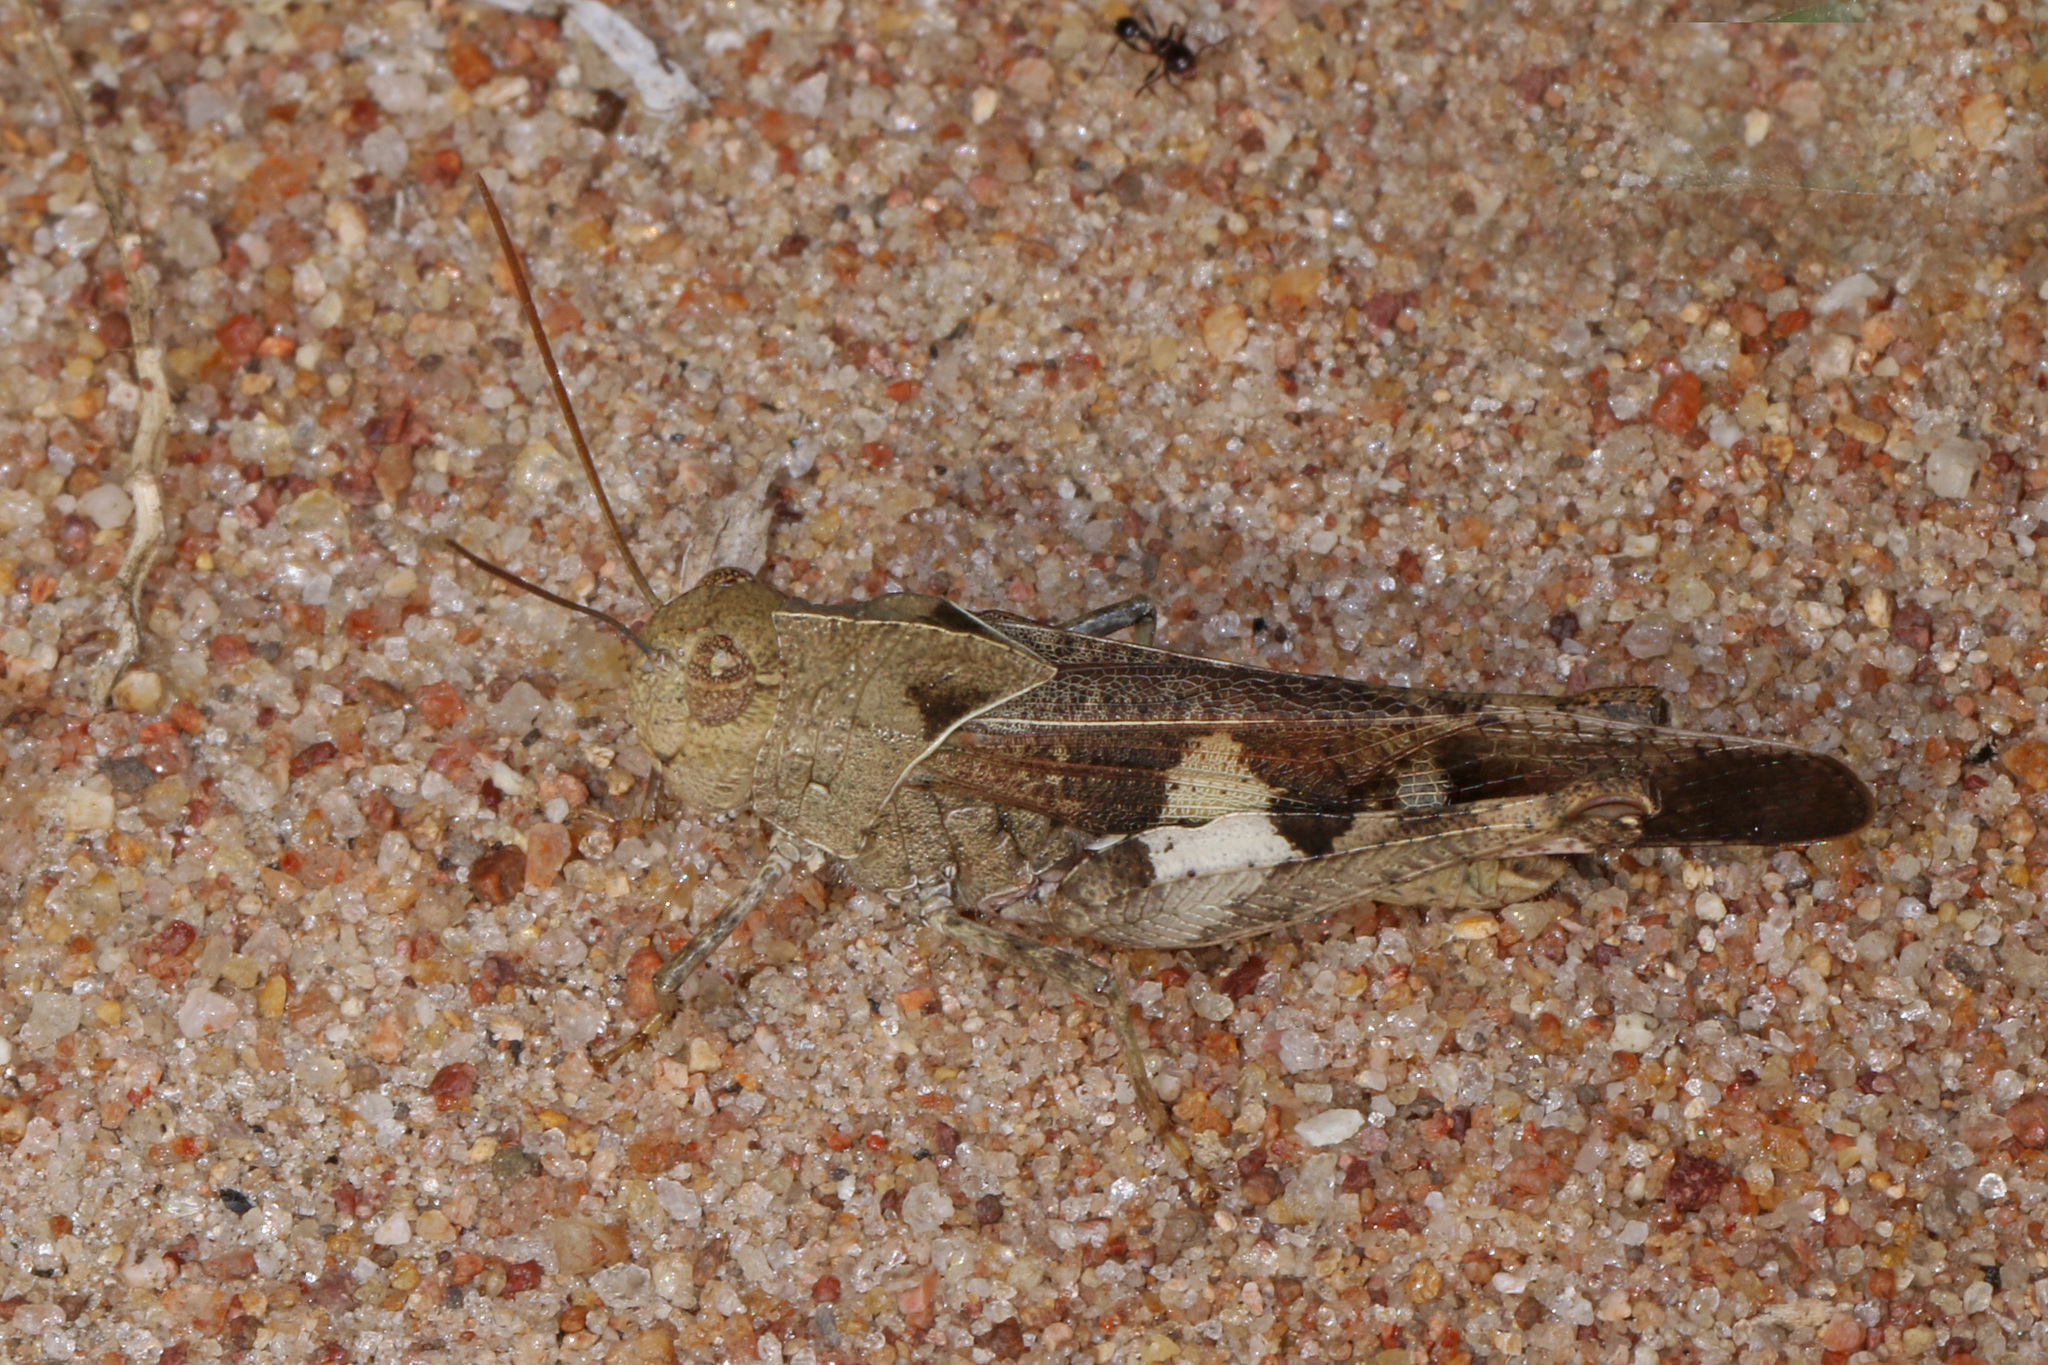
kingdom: Animalia
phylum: Arthropoda
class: Insecta
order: Orthoptera
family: Acrididae
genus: Humbe
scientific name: Humbe tenuicornis
